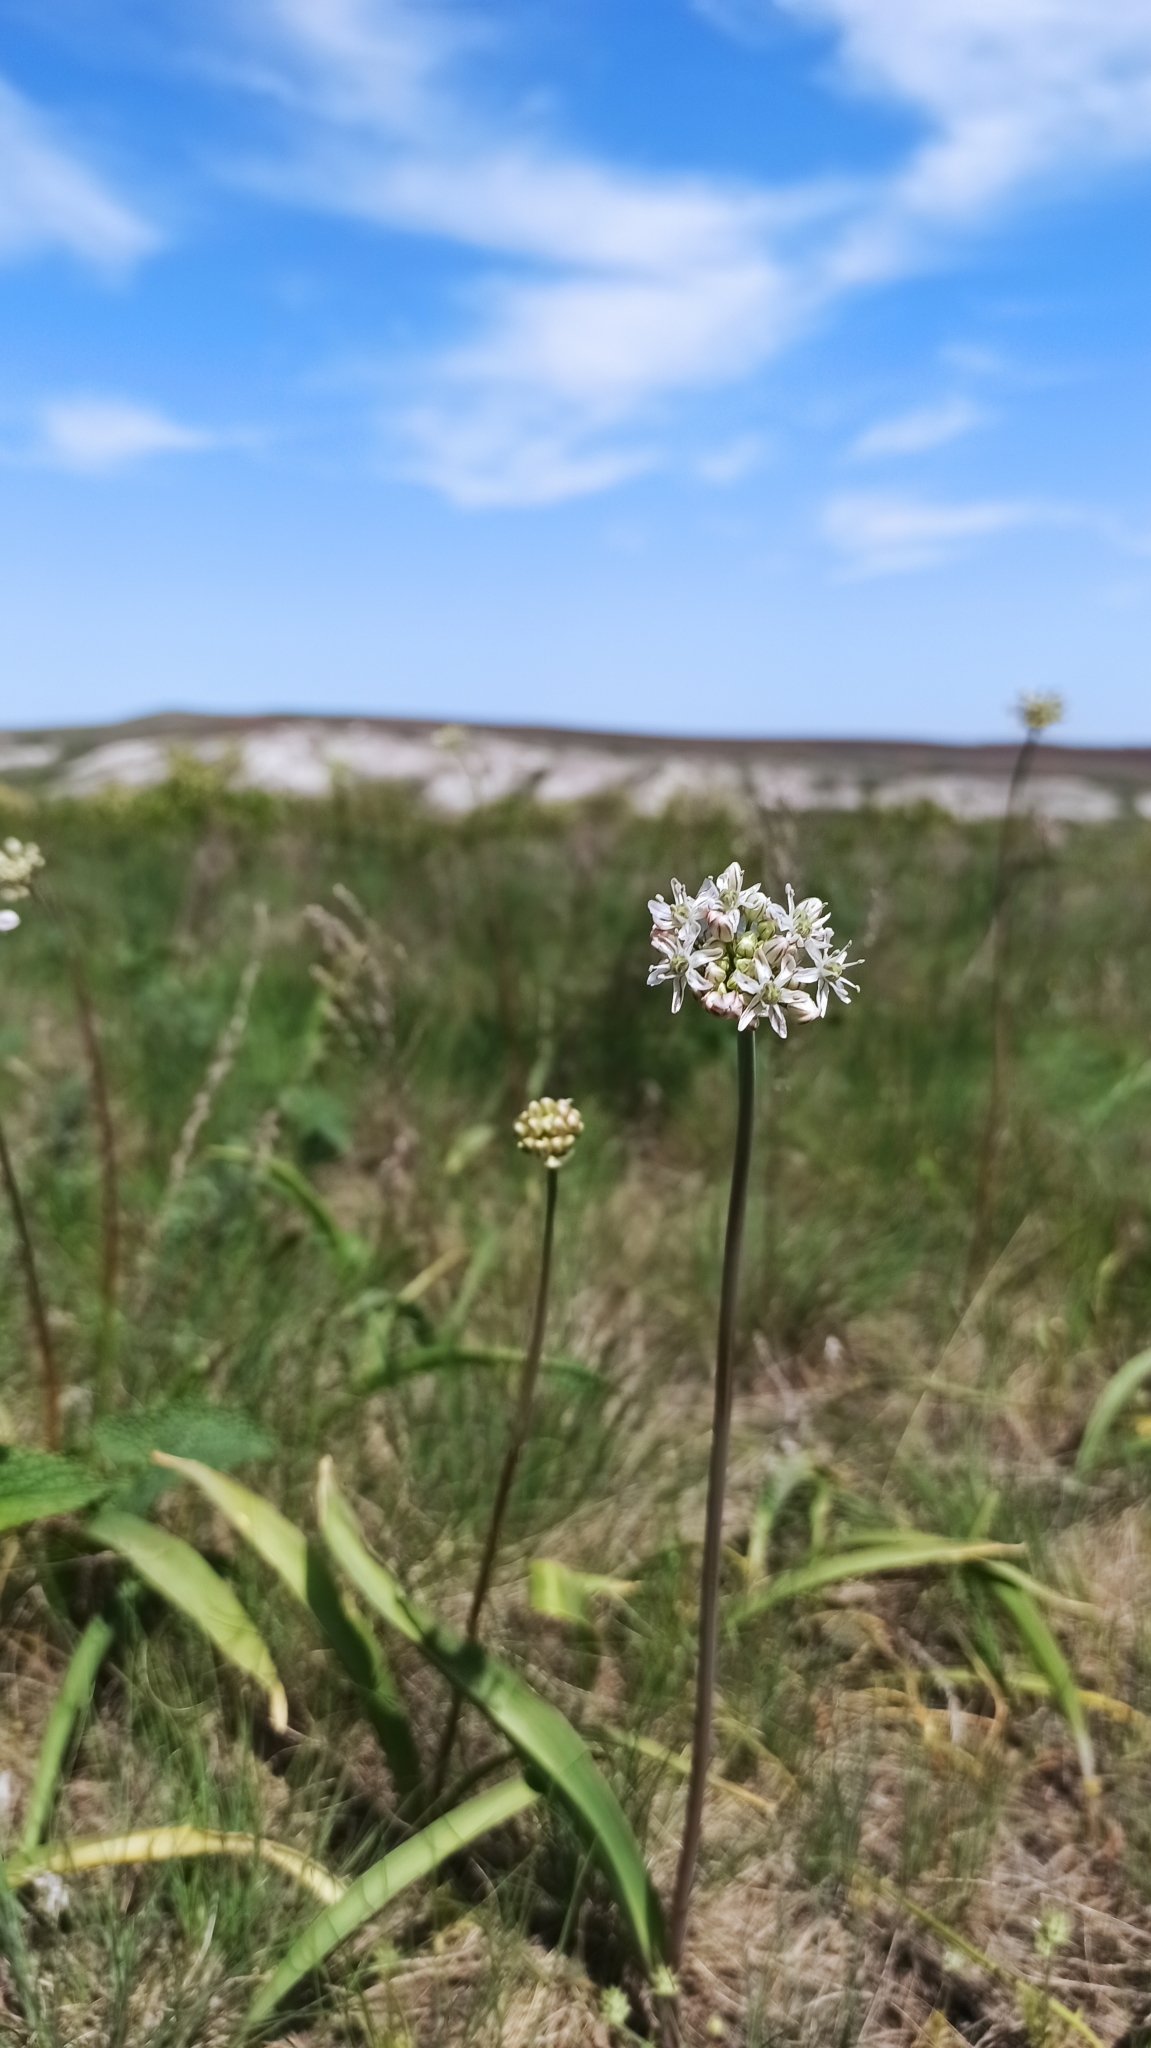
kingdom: Plantae
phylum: Tracheophyta
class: Liliopsida
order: Asparagales
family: Amaryllidaceae
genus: Allium
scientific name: Allium tulipifolium
